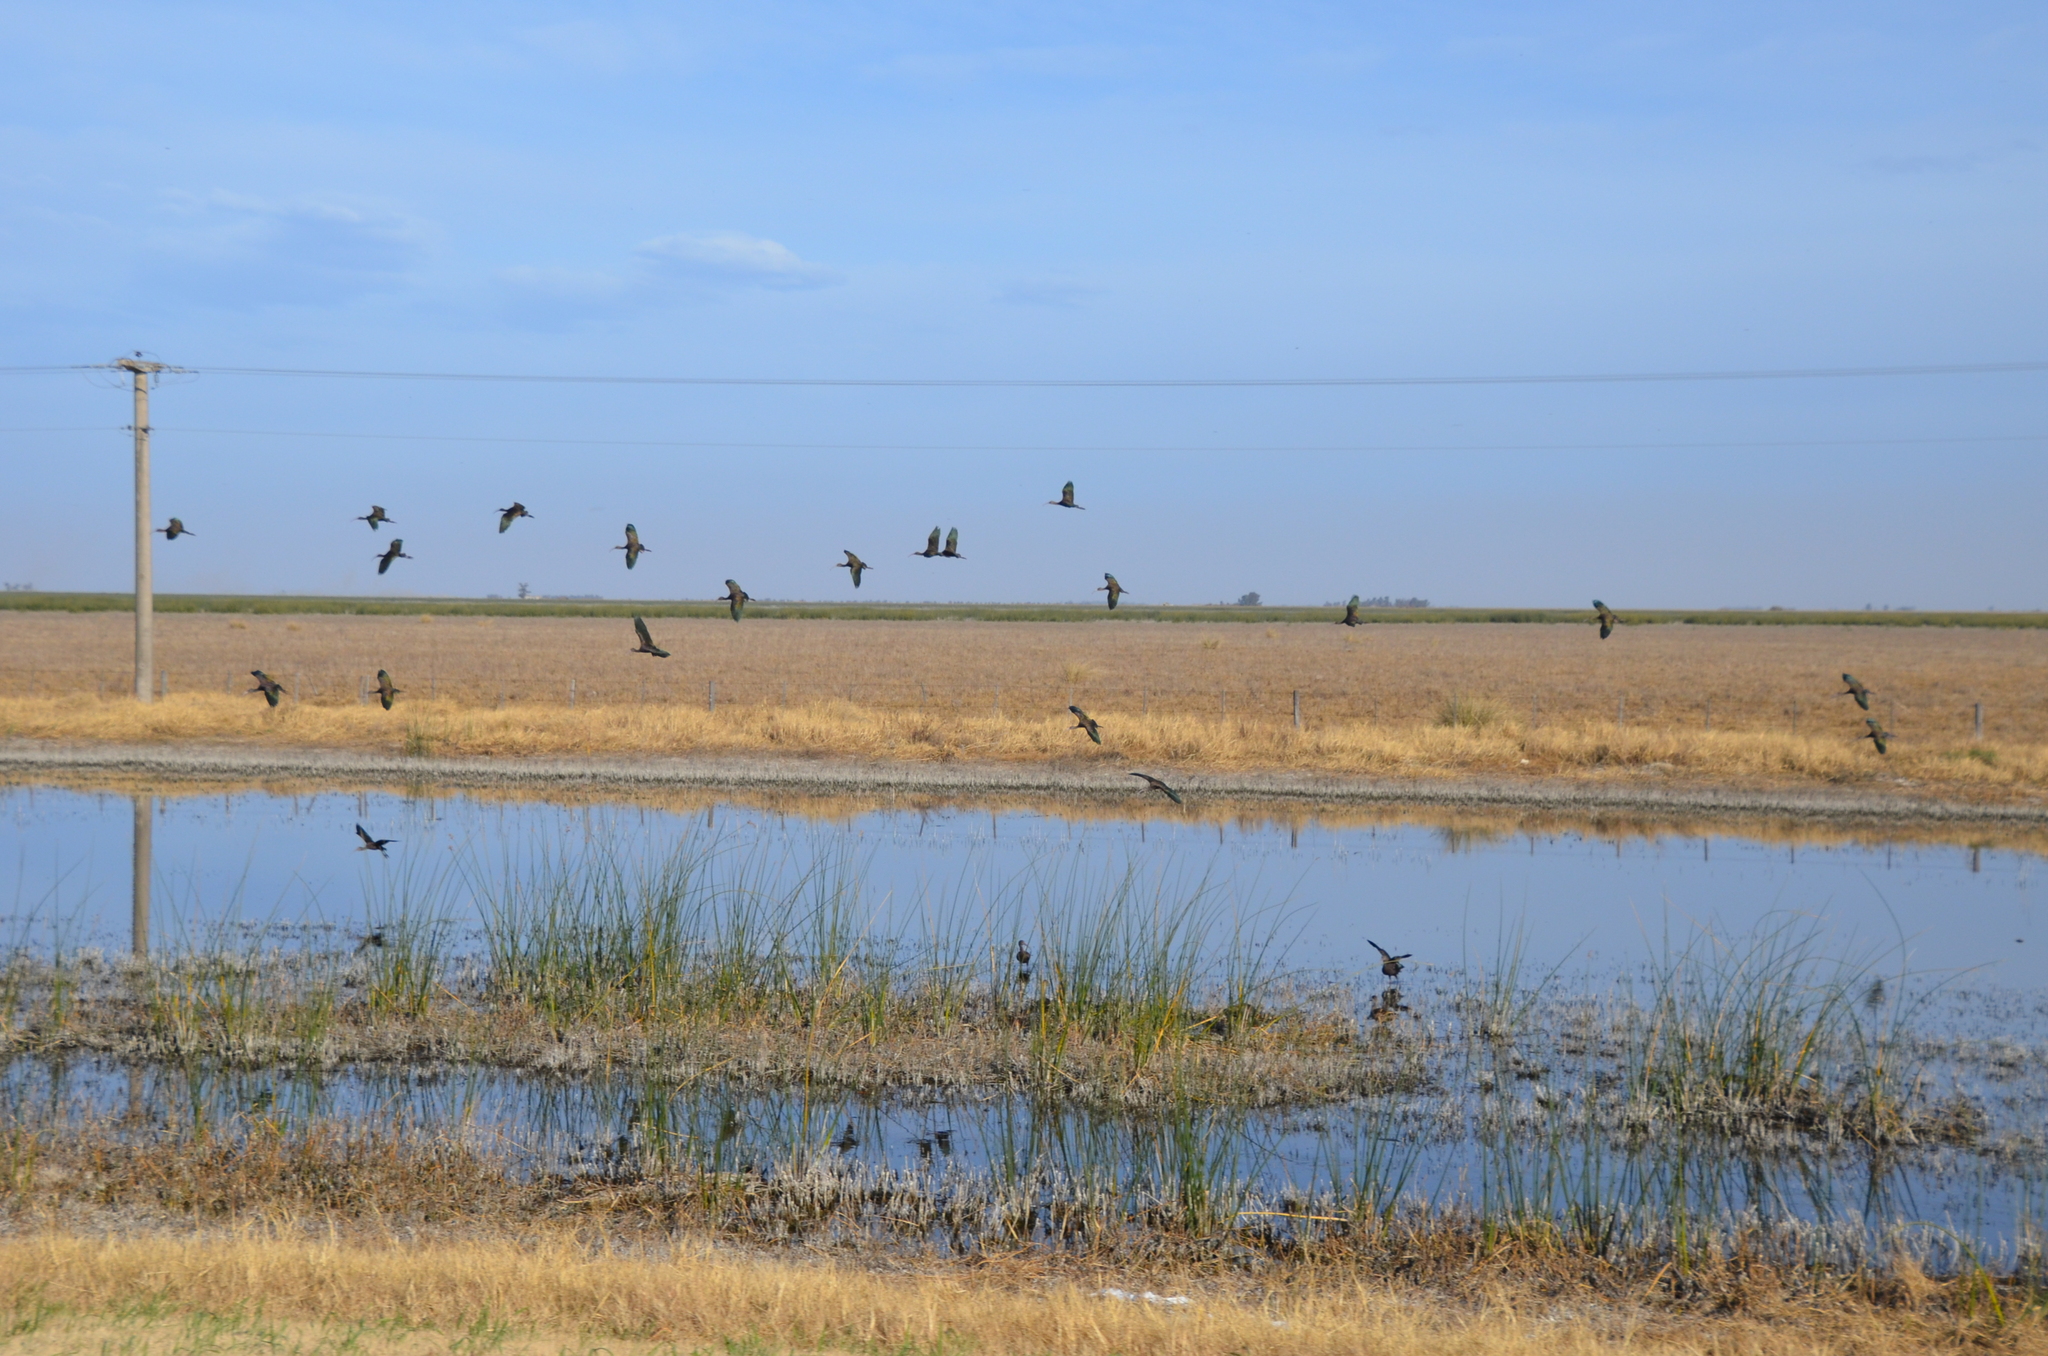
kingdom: Animalia
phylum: Chordata
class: Aves
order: Pelecaniformes
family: Threskiornithidae
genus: Plegadis
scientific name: Plegadis chihi
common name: White-faced ibis
